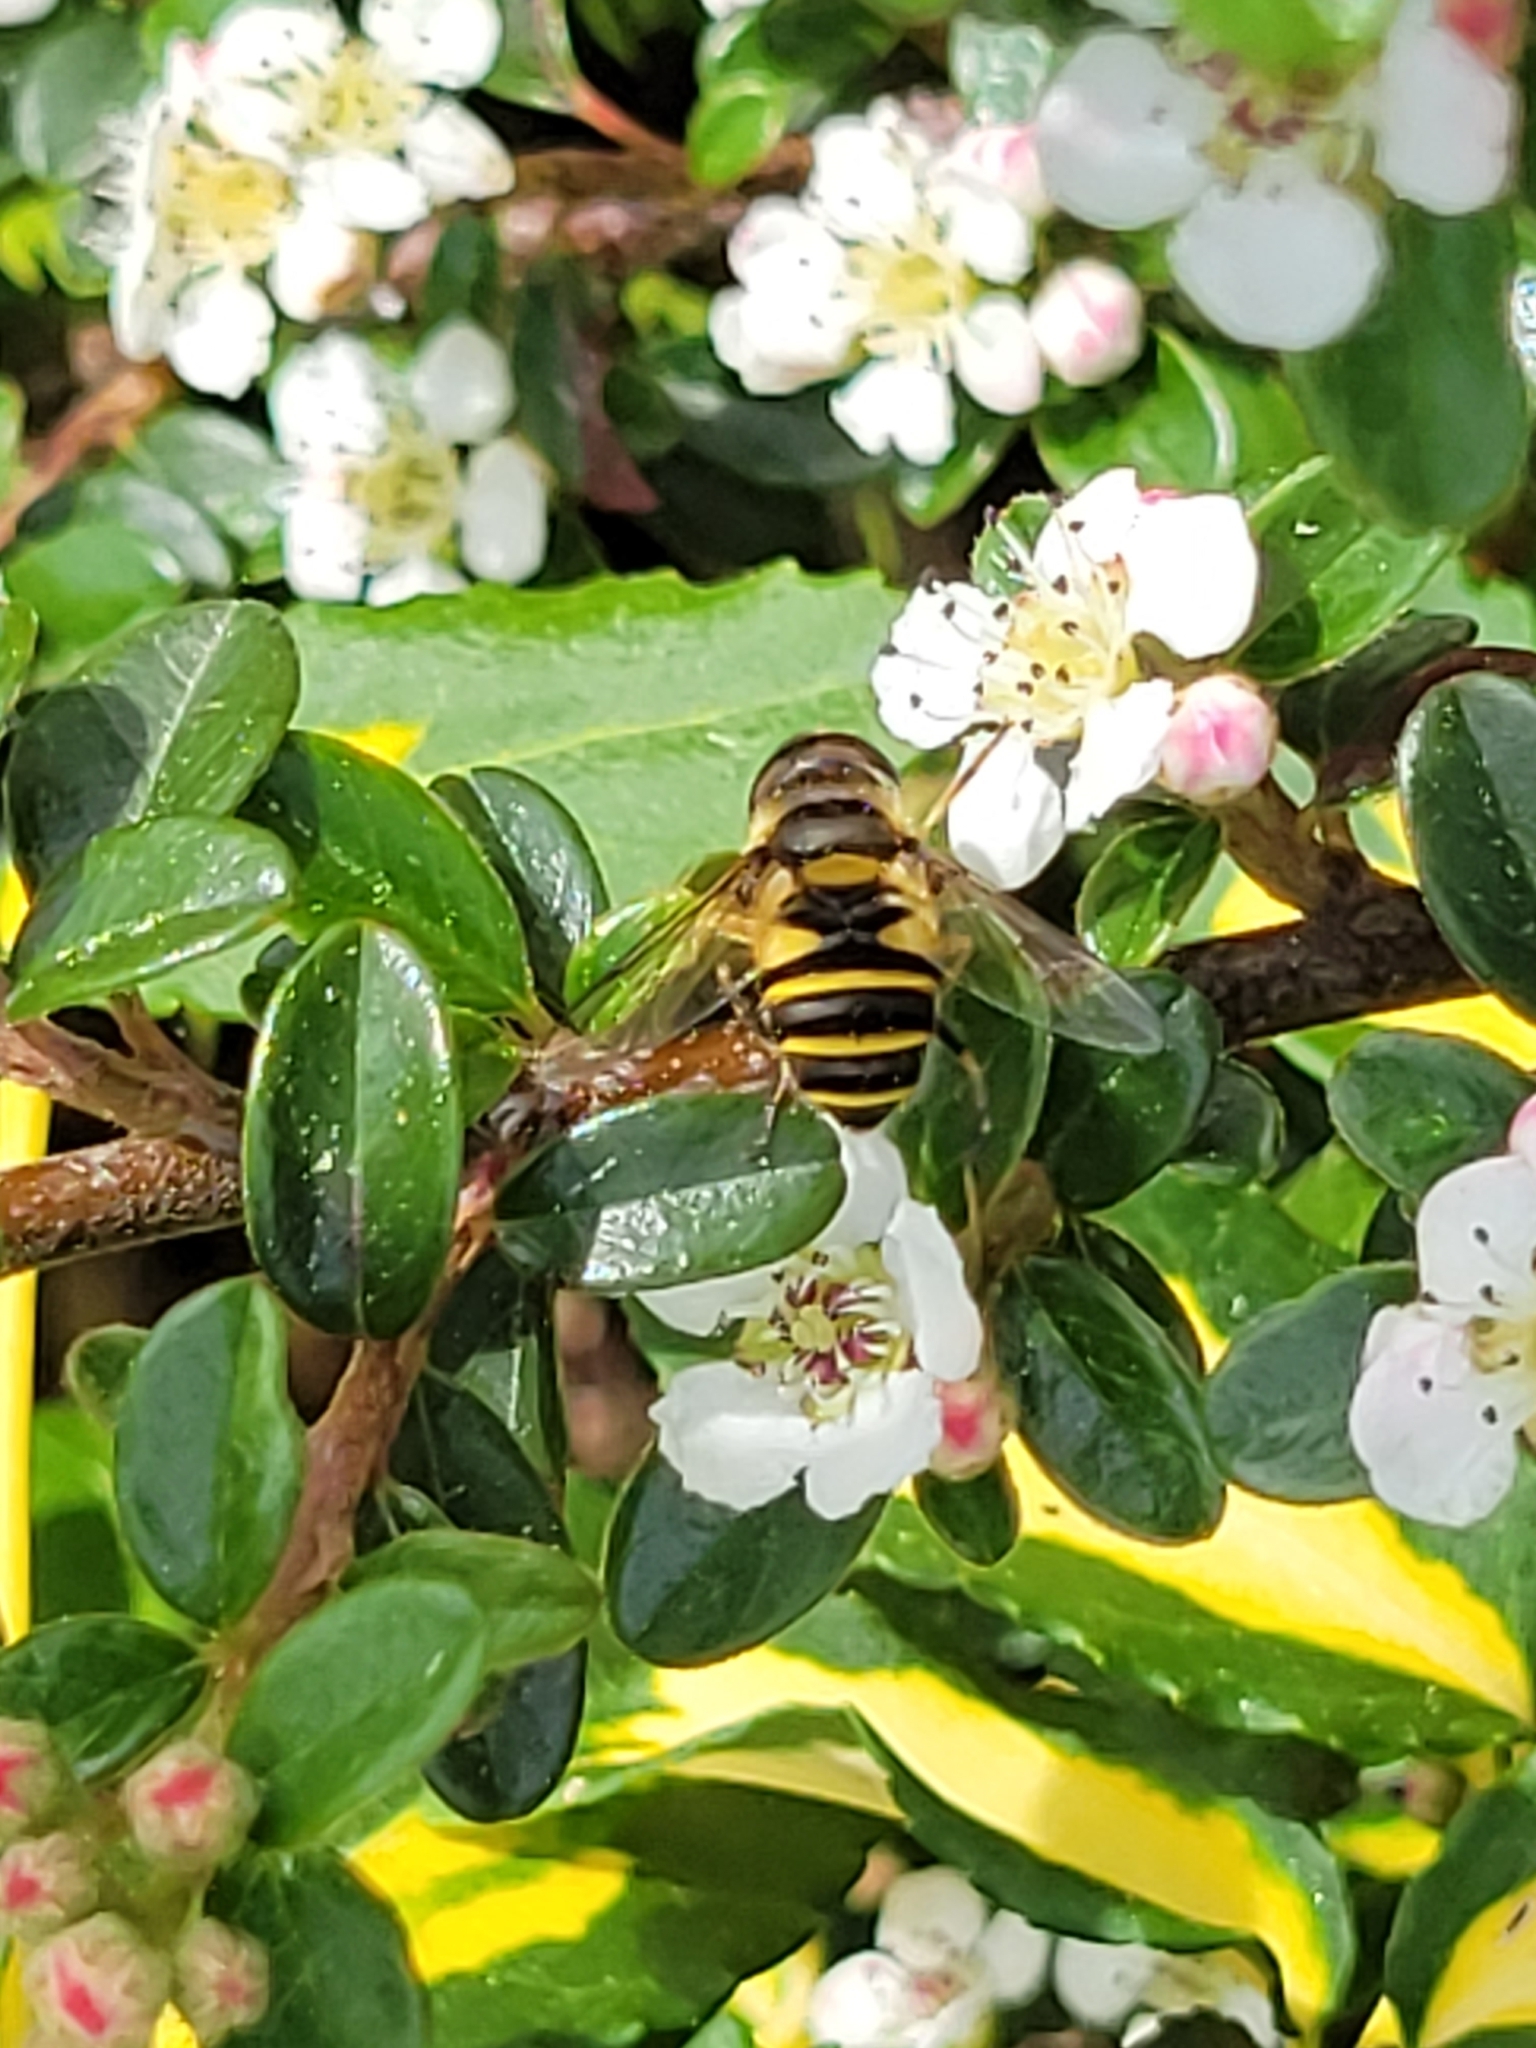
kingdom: Animalia
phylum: Arthropoda
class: Insecta
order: Diptera
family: Syrphidae
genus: Eristalis
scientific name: Eristalis transversa
